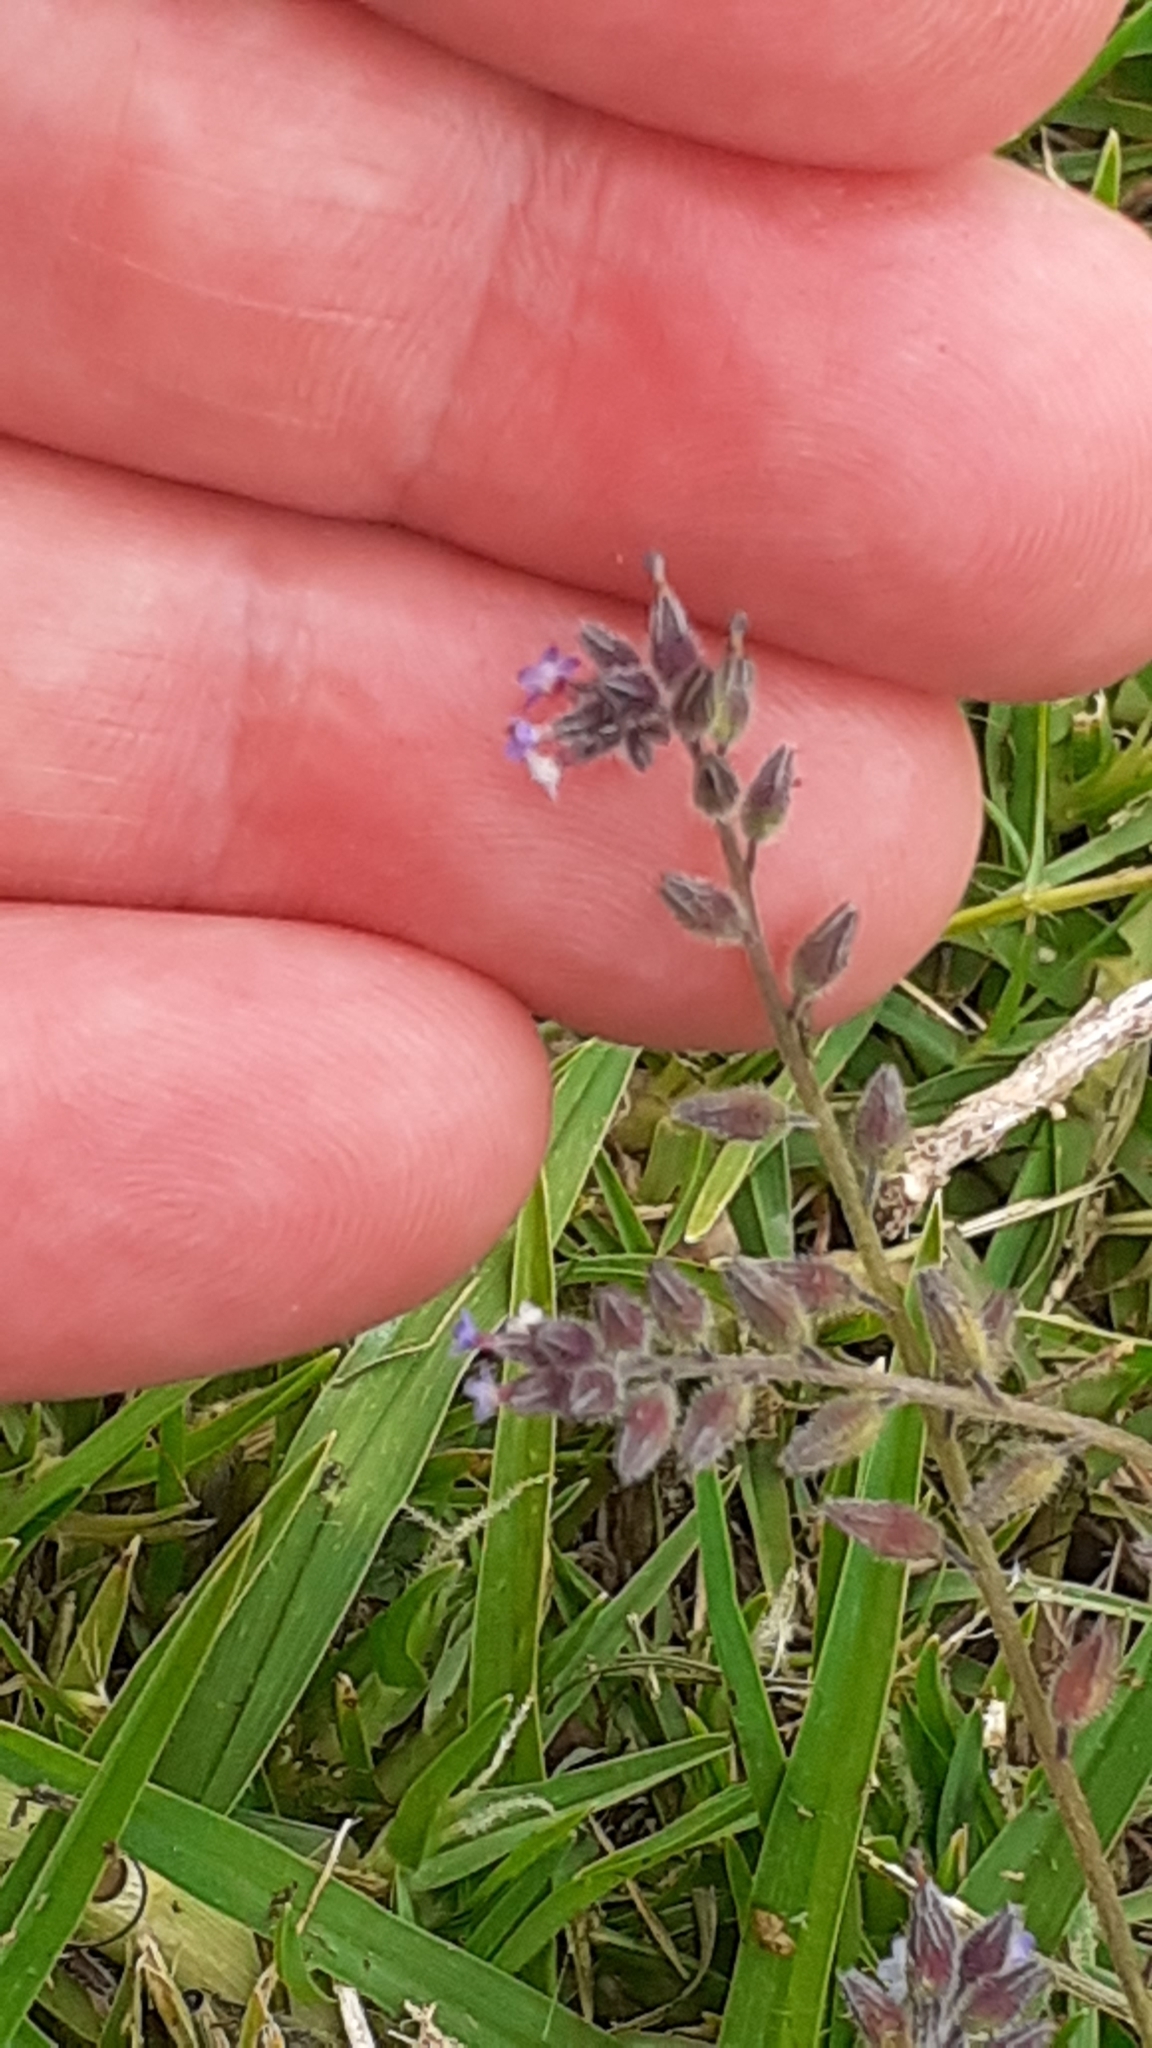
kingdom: Plantae
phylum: Tracheophyta
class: Magnoliopsida
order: Boraginales
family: Boraginaceae
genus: Myosotis
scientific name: Myosotis discolor
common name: Changing forget-me-not
